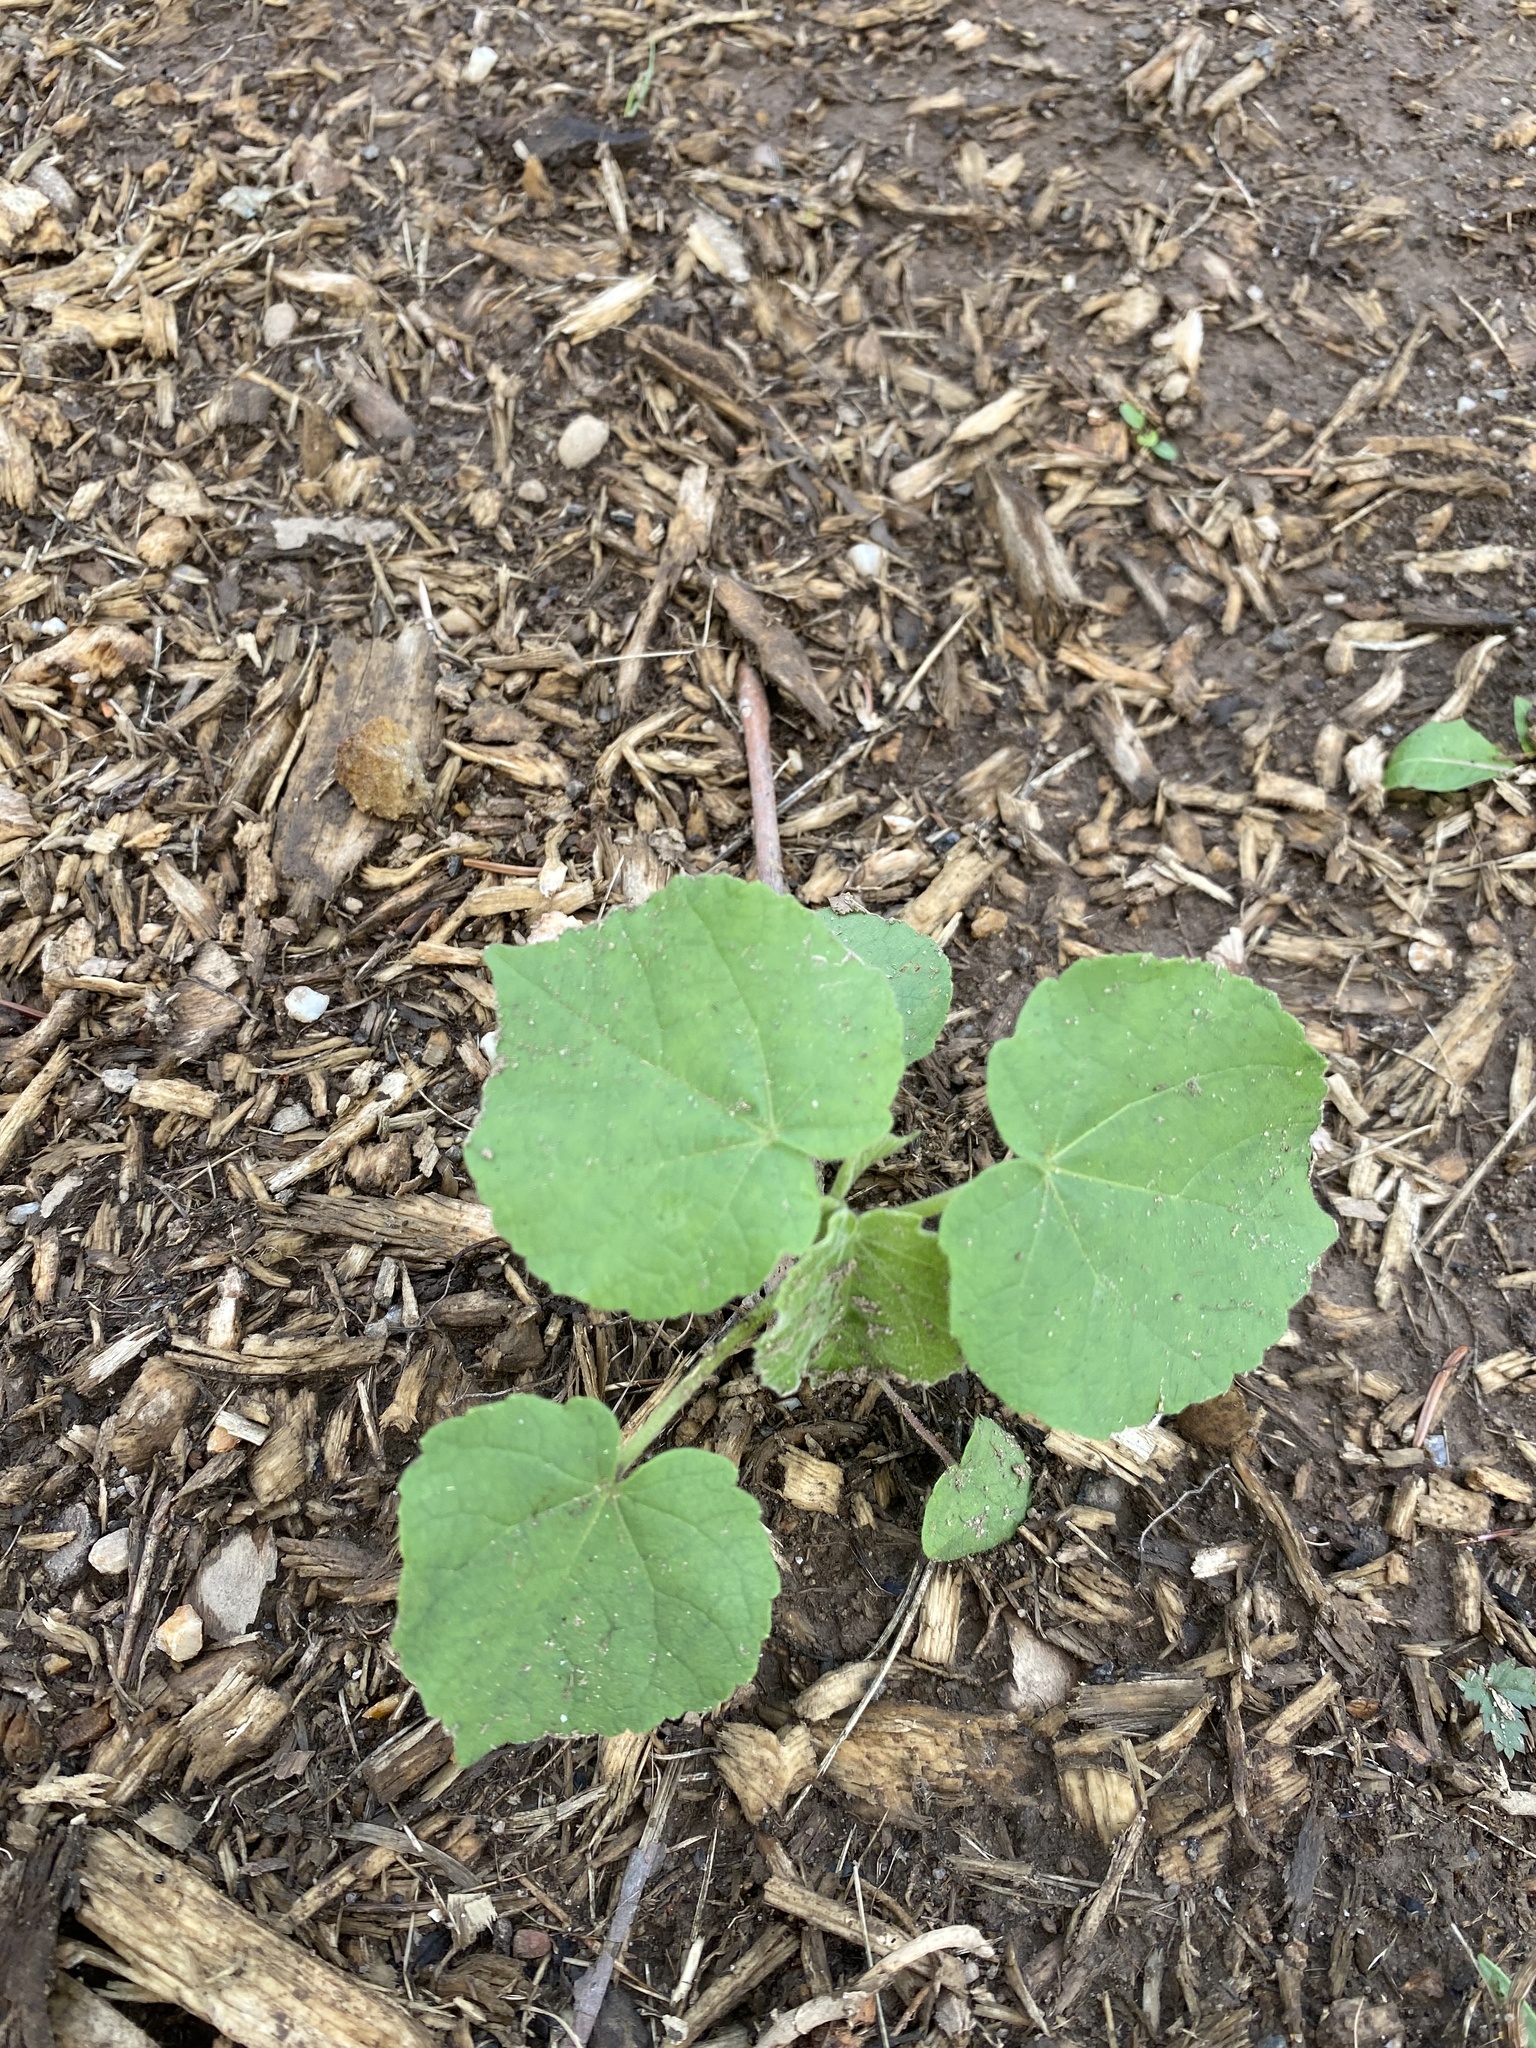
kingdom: Plantae
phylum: Tracheophyta
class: Magnoliopsida
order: Malvales
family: Malvaceae
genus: Abutilon
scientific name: Abutilon theophrasti
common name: Velvetleaf
